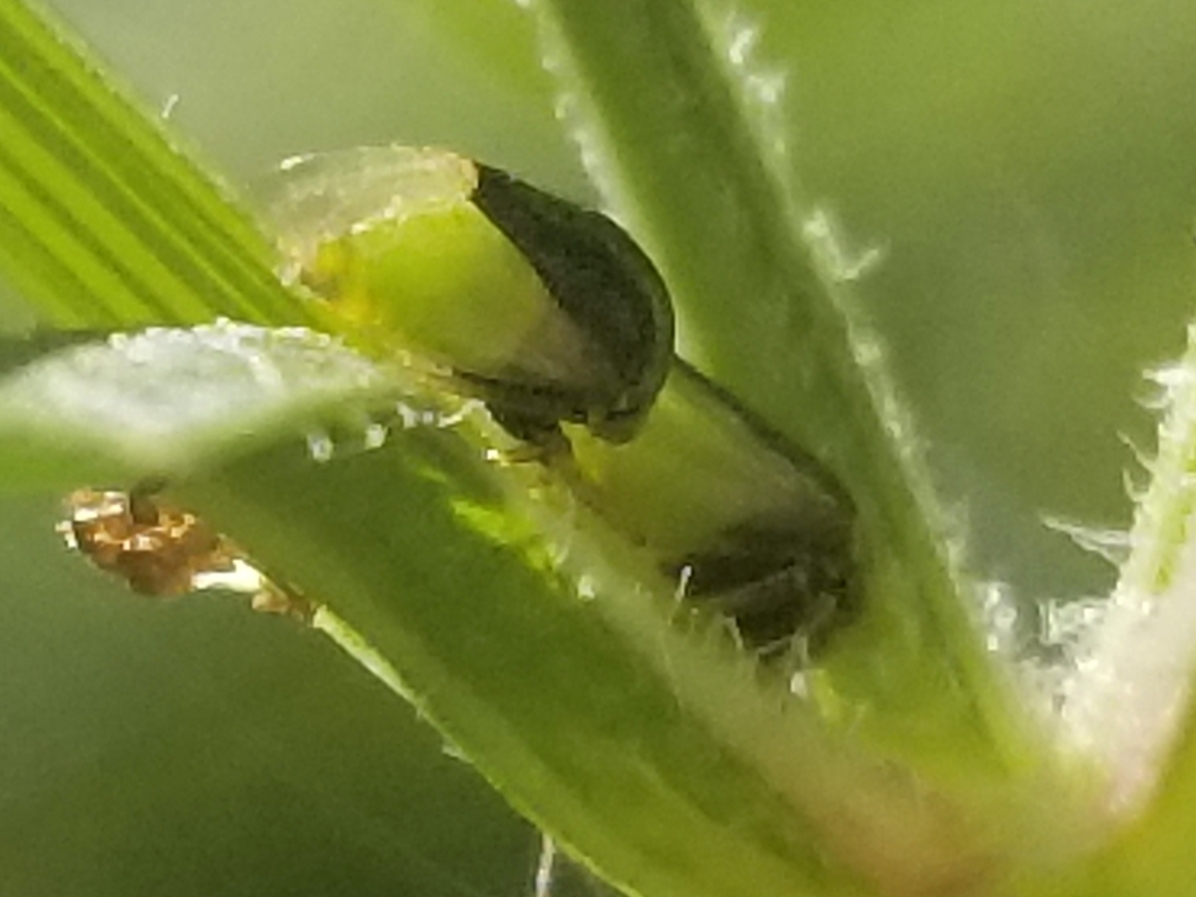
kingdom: Animalia
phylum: Arthropoda
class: Insecta
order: Hemiptera
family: Membracidae
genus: Micrutalis
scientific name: Micrutalis calva
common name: Honeylocust treehopper
